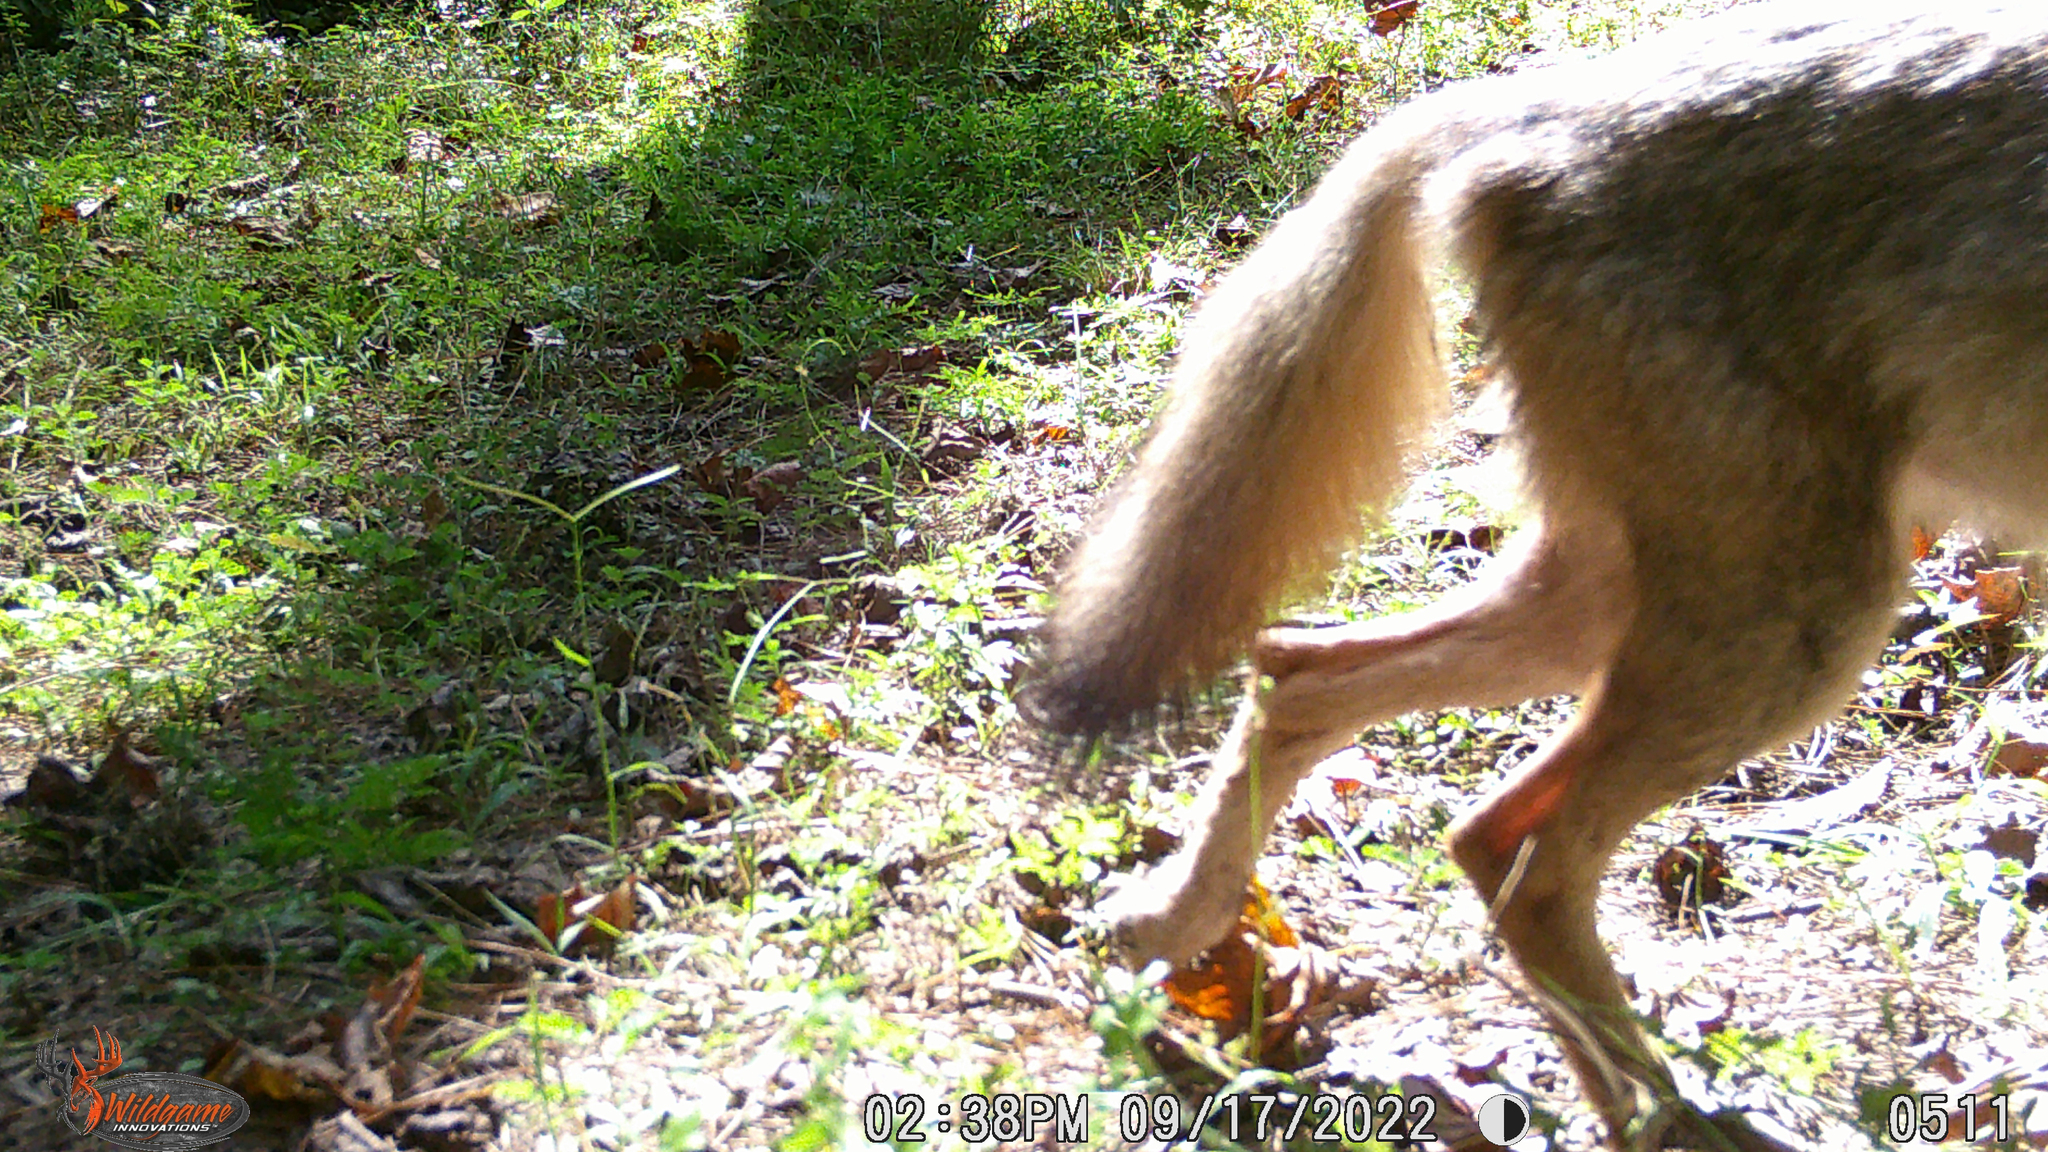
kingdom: Animalia
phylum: Chordata
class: Mammalia
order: Carnivora
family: Canidae
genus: Canis
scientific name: Canis latrans
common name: Coyote
